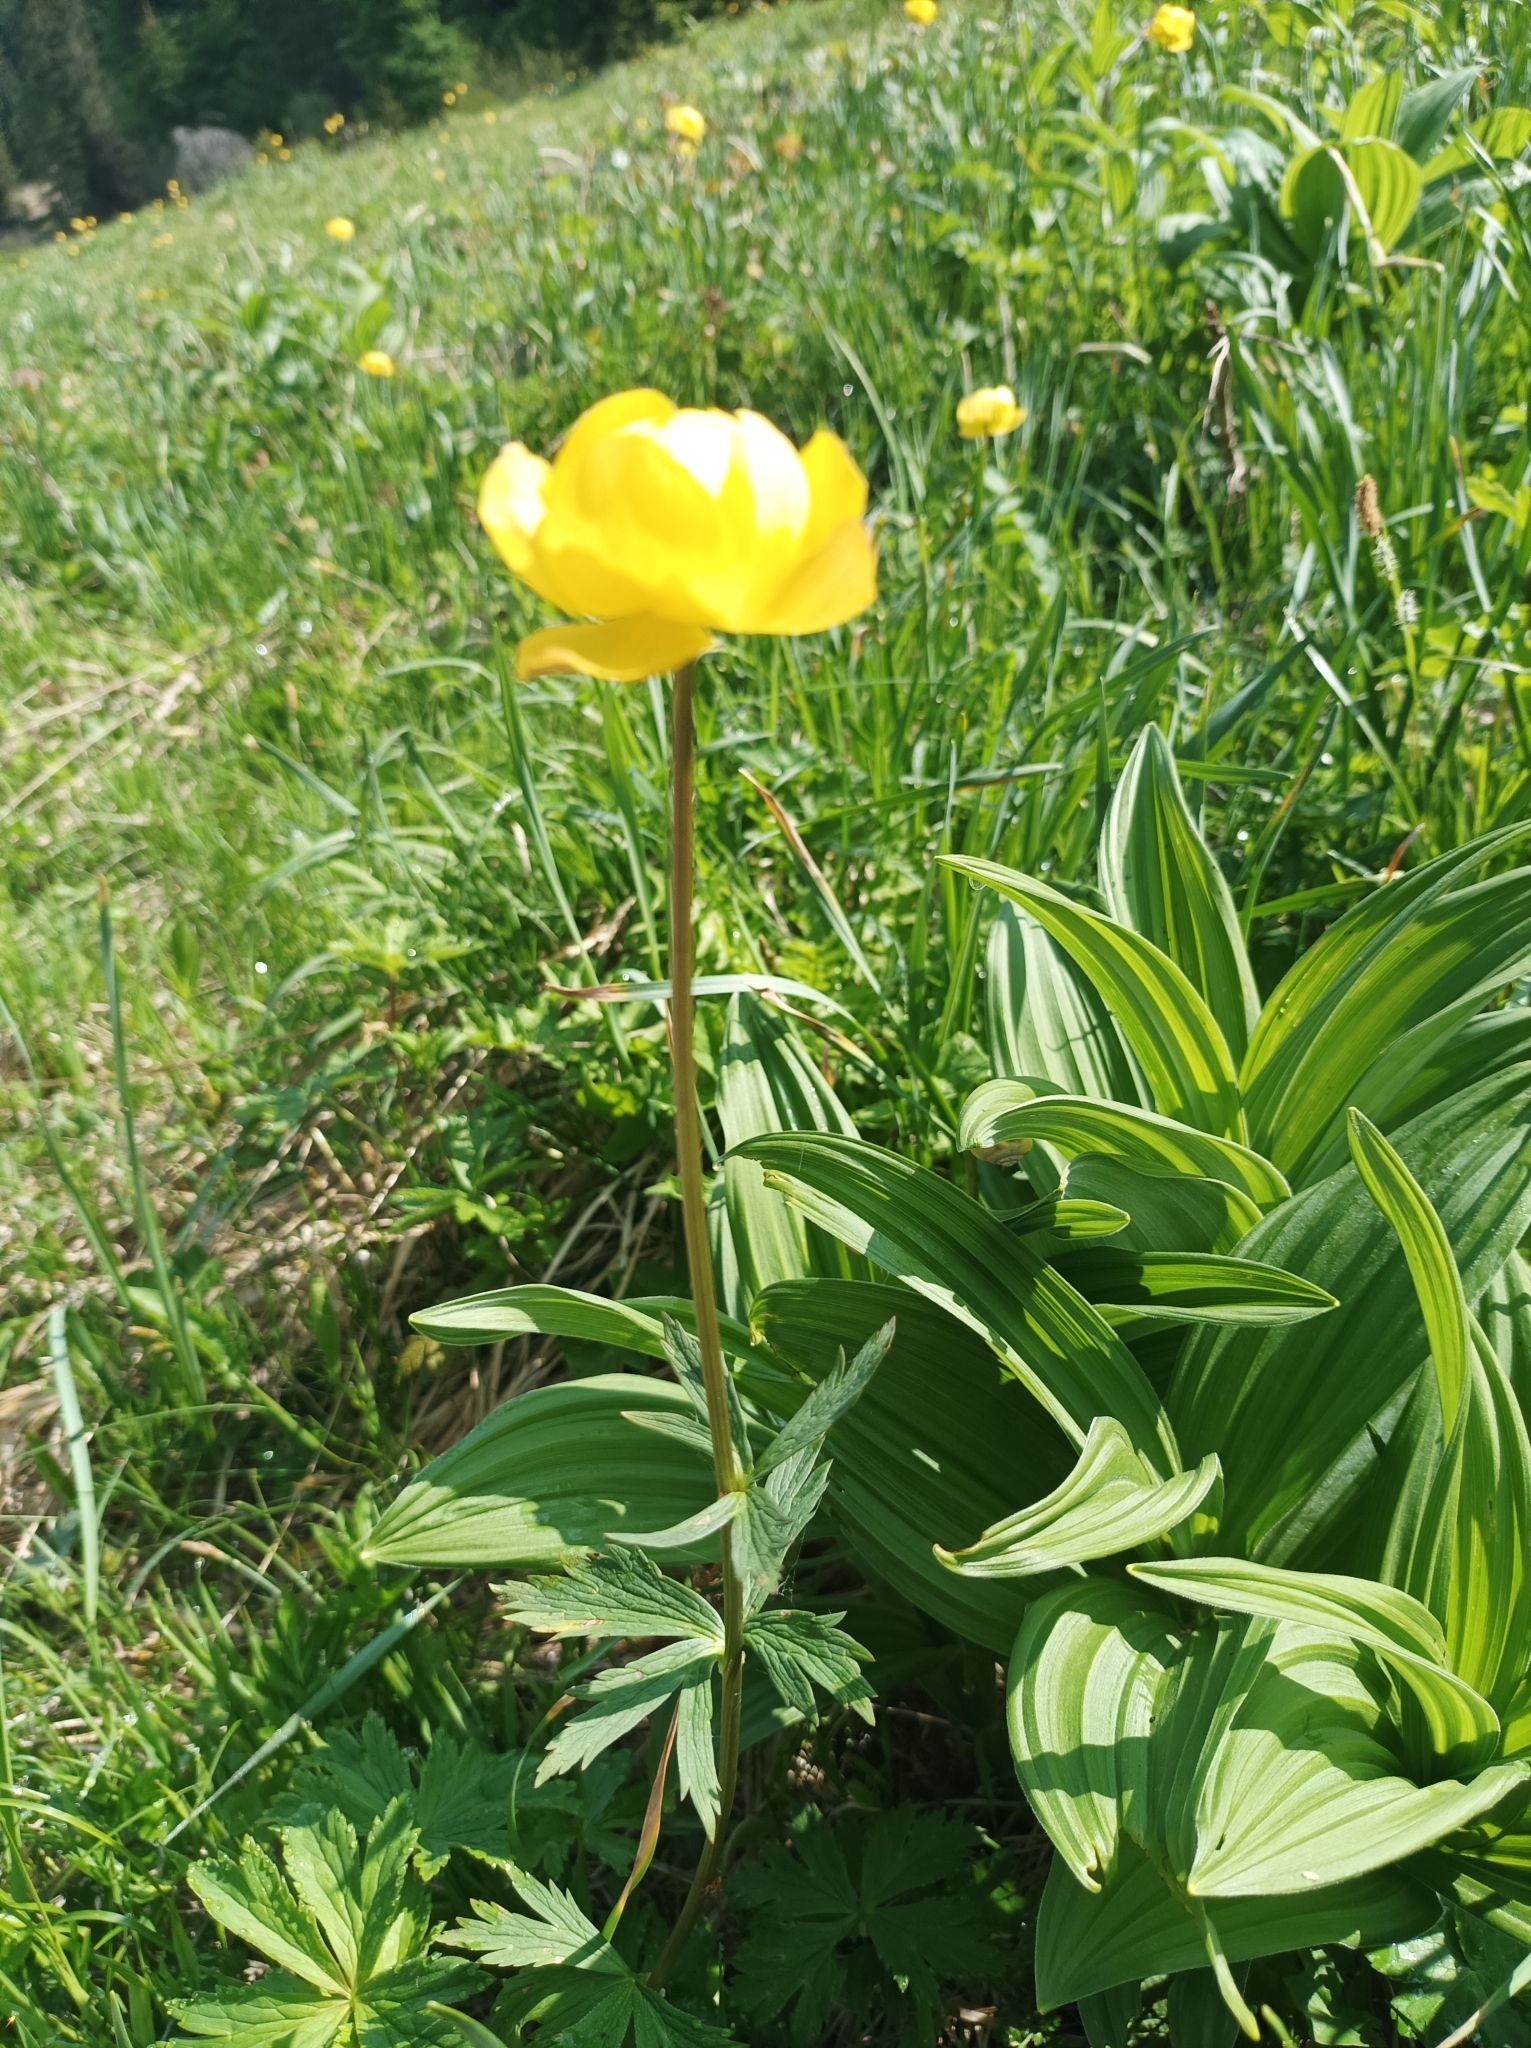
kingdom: Plantae
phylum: Tracheophyta
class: Magnoliopsida
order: Ranunculales
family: Ranunculaceae
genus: Trollius
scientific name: Trollius europaeus
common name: European globeflower
